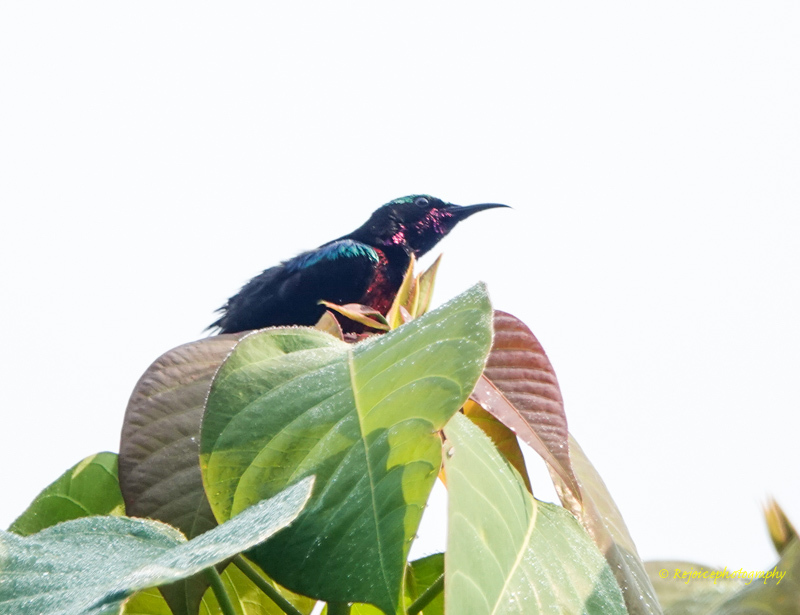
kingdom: Animalia
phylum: Chordata
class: Aves
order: Passeriformes
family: Nectariniidae
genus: Leptocoma
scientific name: Leptocoma brasiliana
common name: Van hasselt's sunbird
